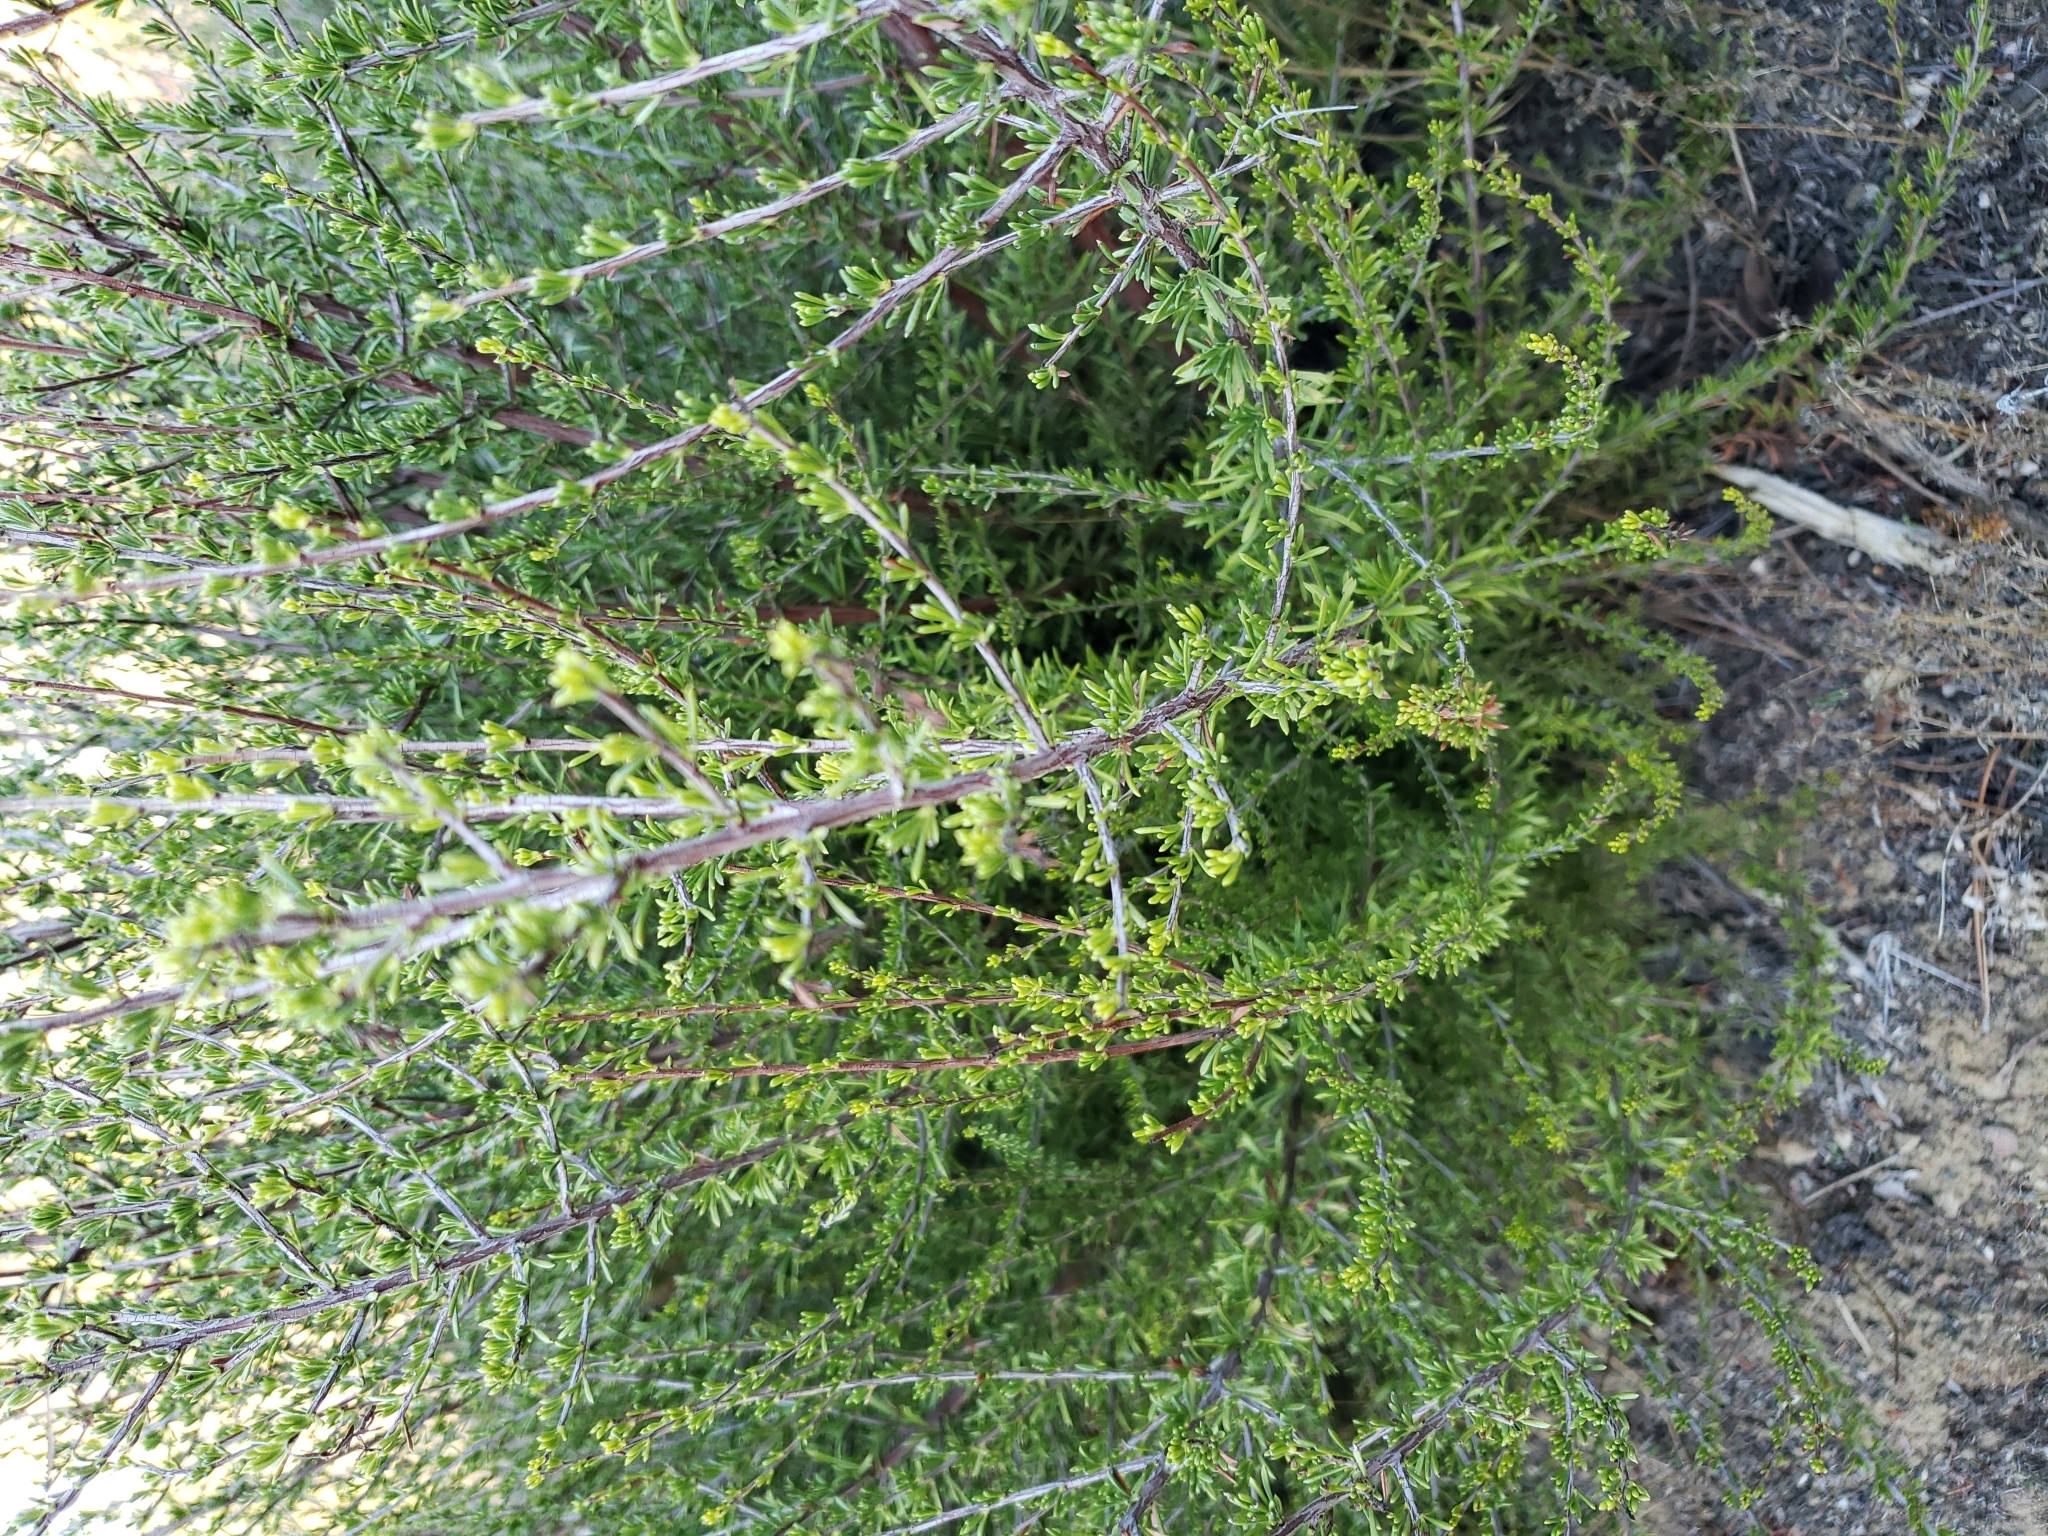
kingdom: Plantae
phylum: Tracheophyta
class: Magnoliopsida
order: Rosales
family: Rosaceae
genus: Adenostoma
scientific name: Adenostoma fasciculatum
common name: Chamise
